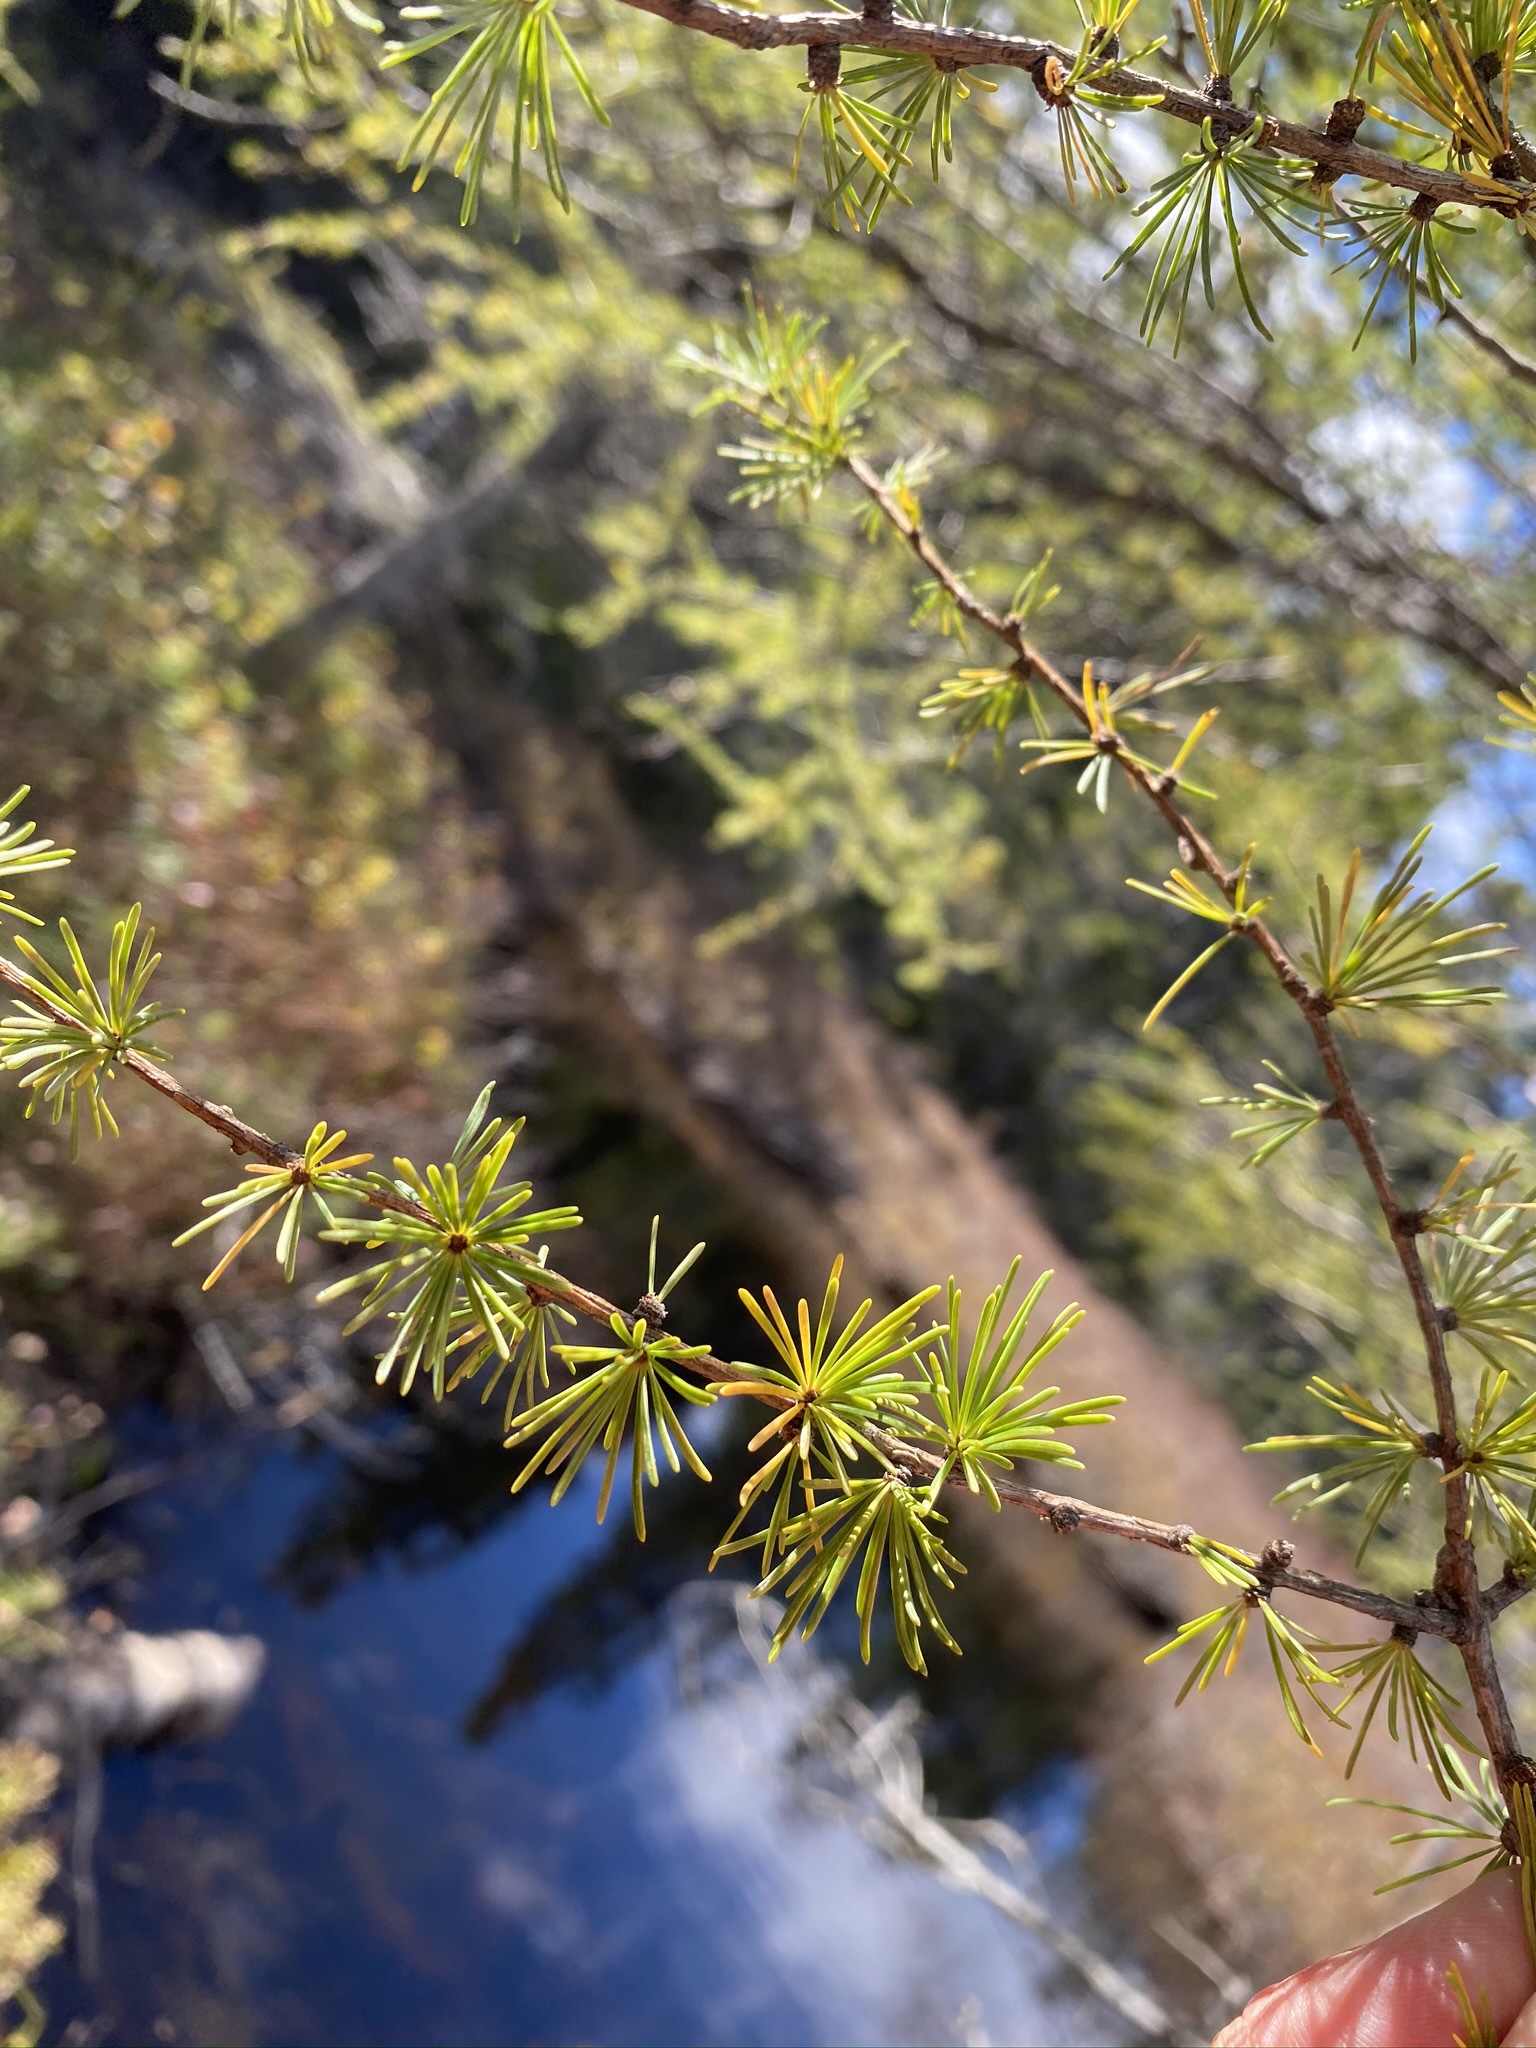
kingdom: Plantae
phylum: Tracheophyta
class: Pinopsida
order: Pinales
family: Pinaceae
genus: Larix
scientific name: Larix laricina
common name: American larch
